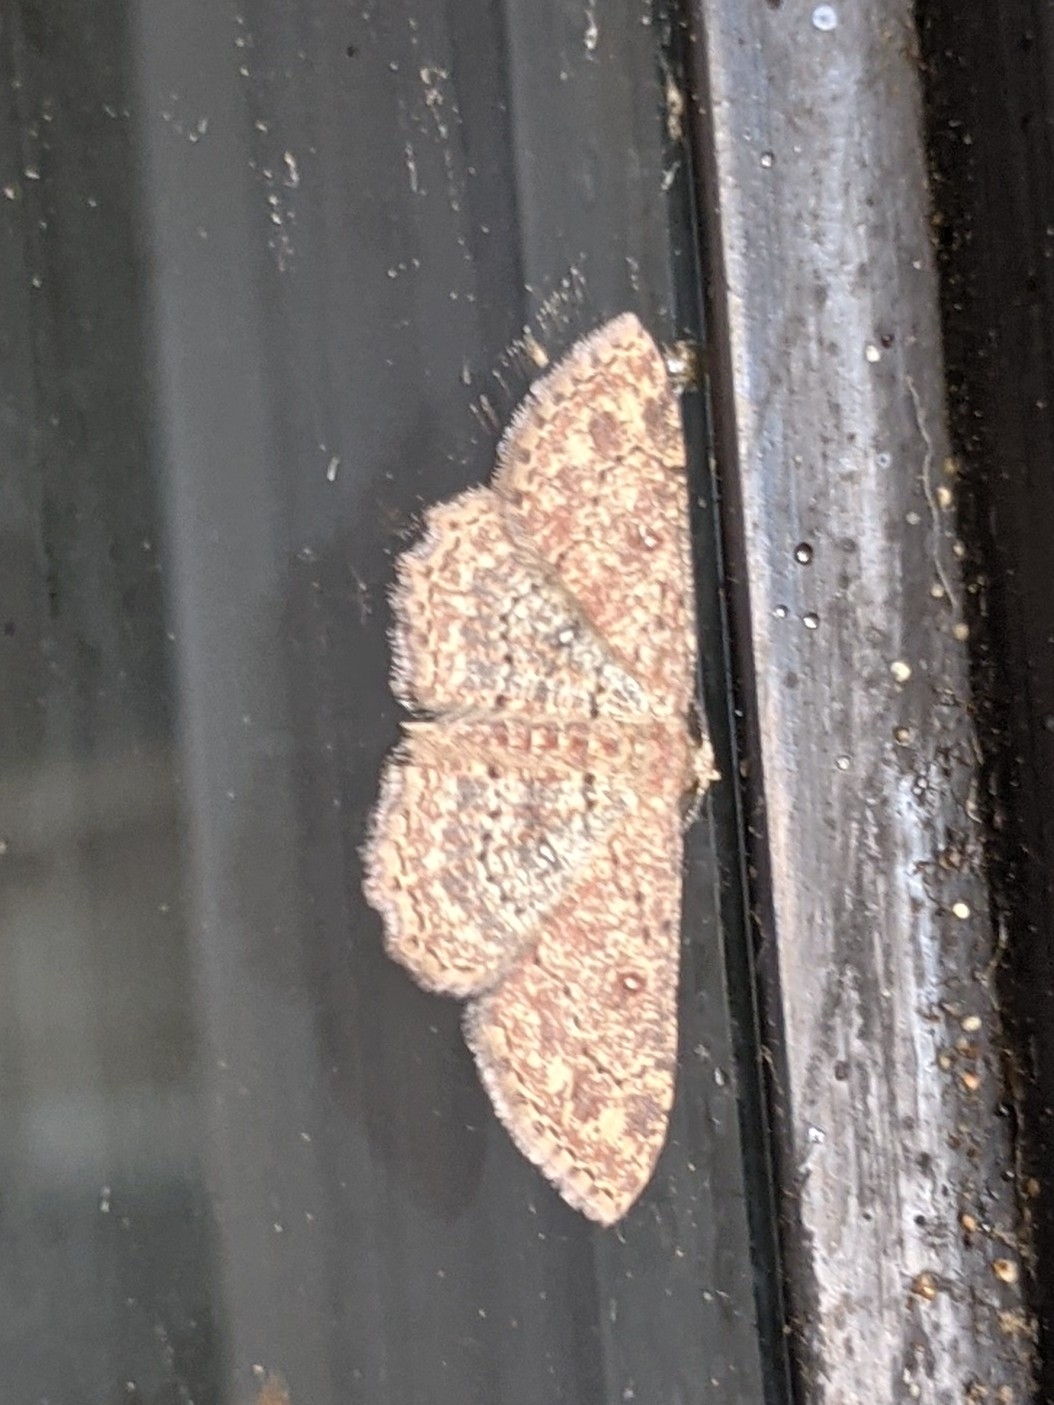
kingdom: Animalia
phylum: Arthropoda
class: Insecta
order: Lepidoptera
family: Geometridae
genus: Cyclophora
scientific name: Cyclophora nanaria
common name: Cankerworm
